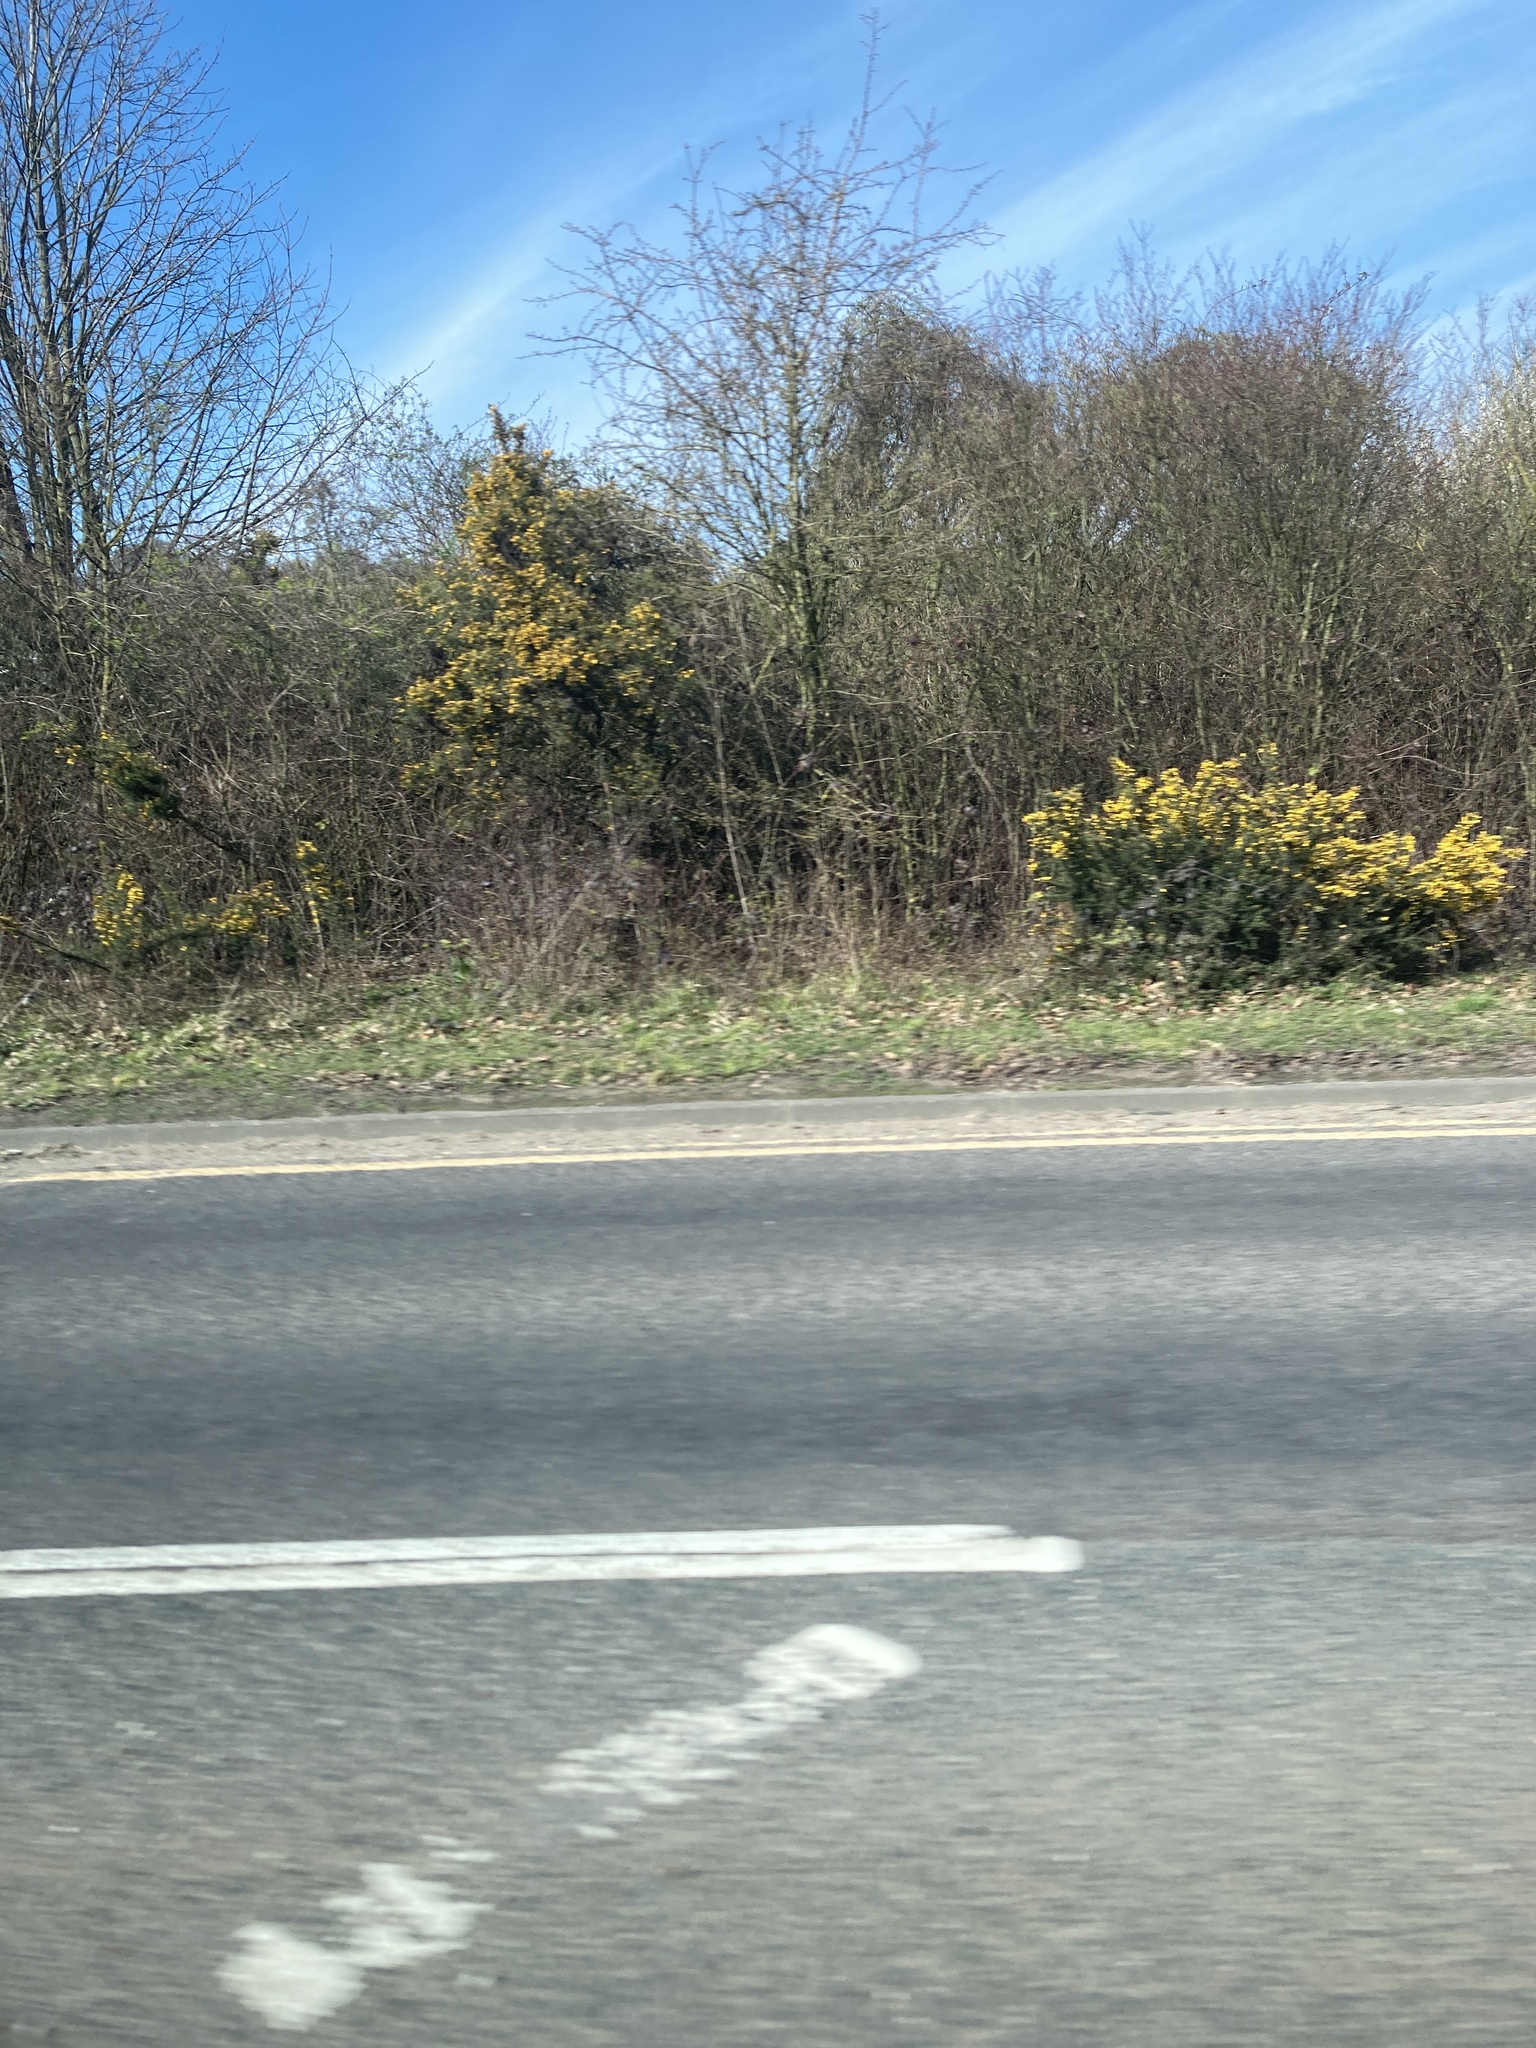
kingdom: Plantae
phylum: Tracheophyta
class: Magnoliopsida
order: Fabales
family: Fabaceae
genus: Ulex
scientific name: Ulex europaeus
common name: Common gorse
